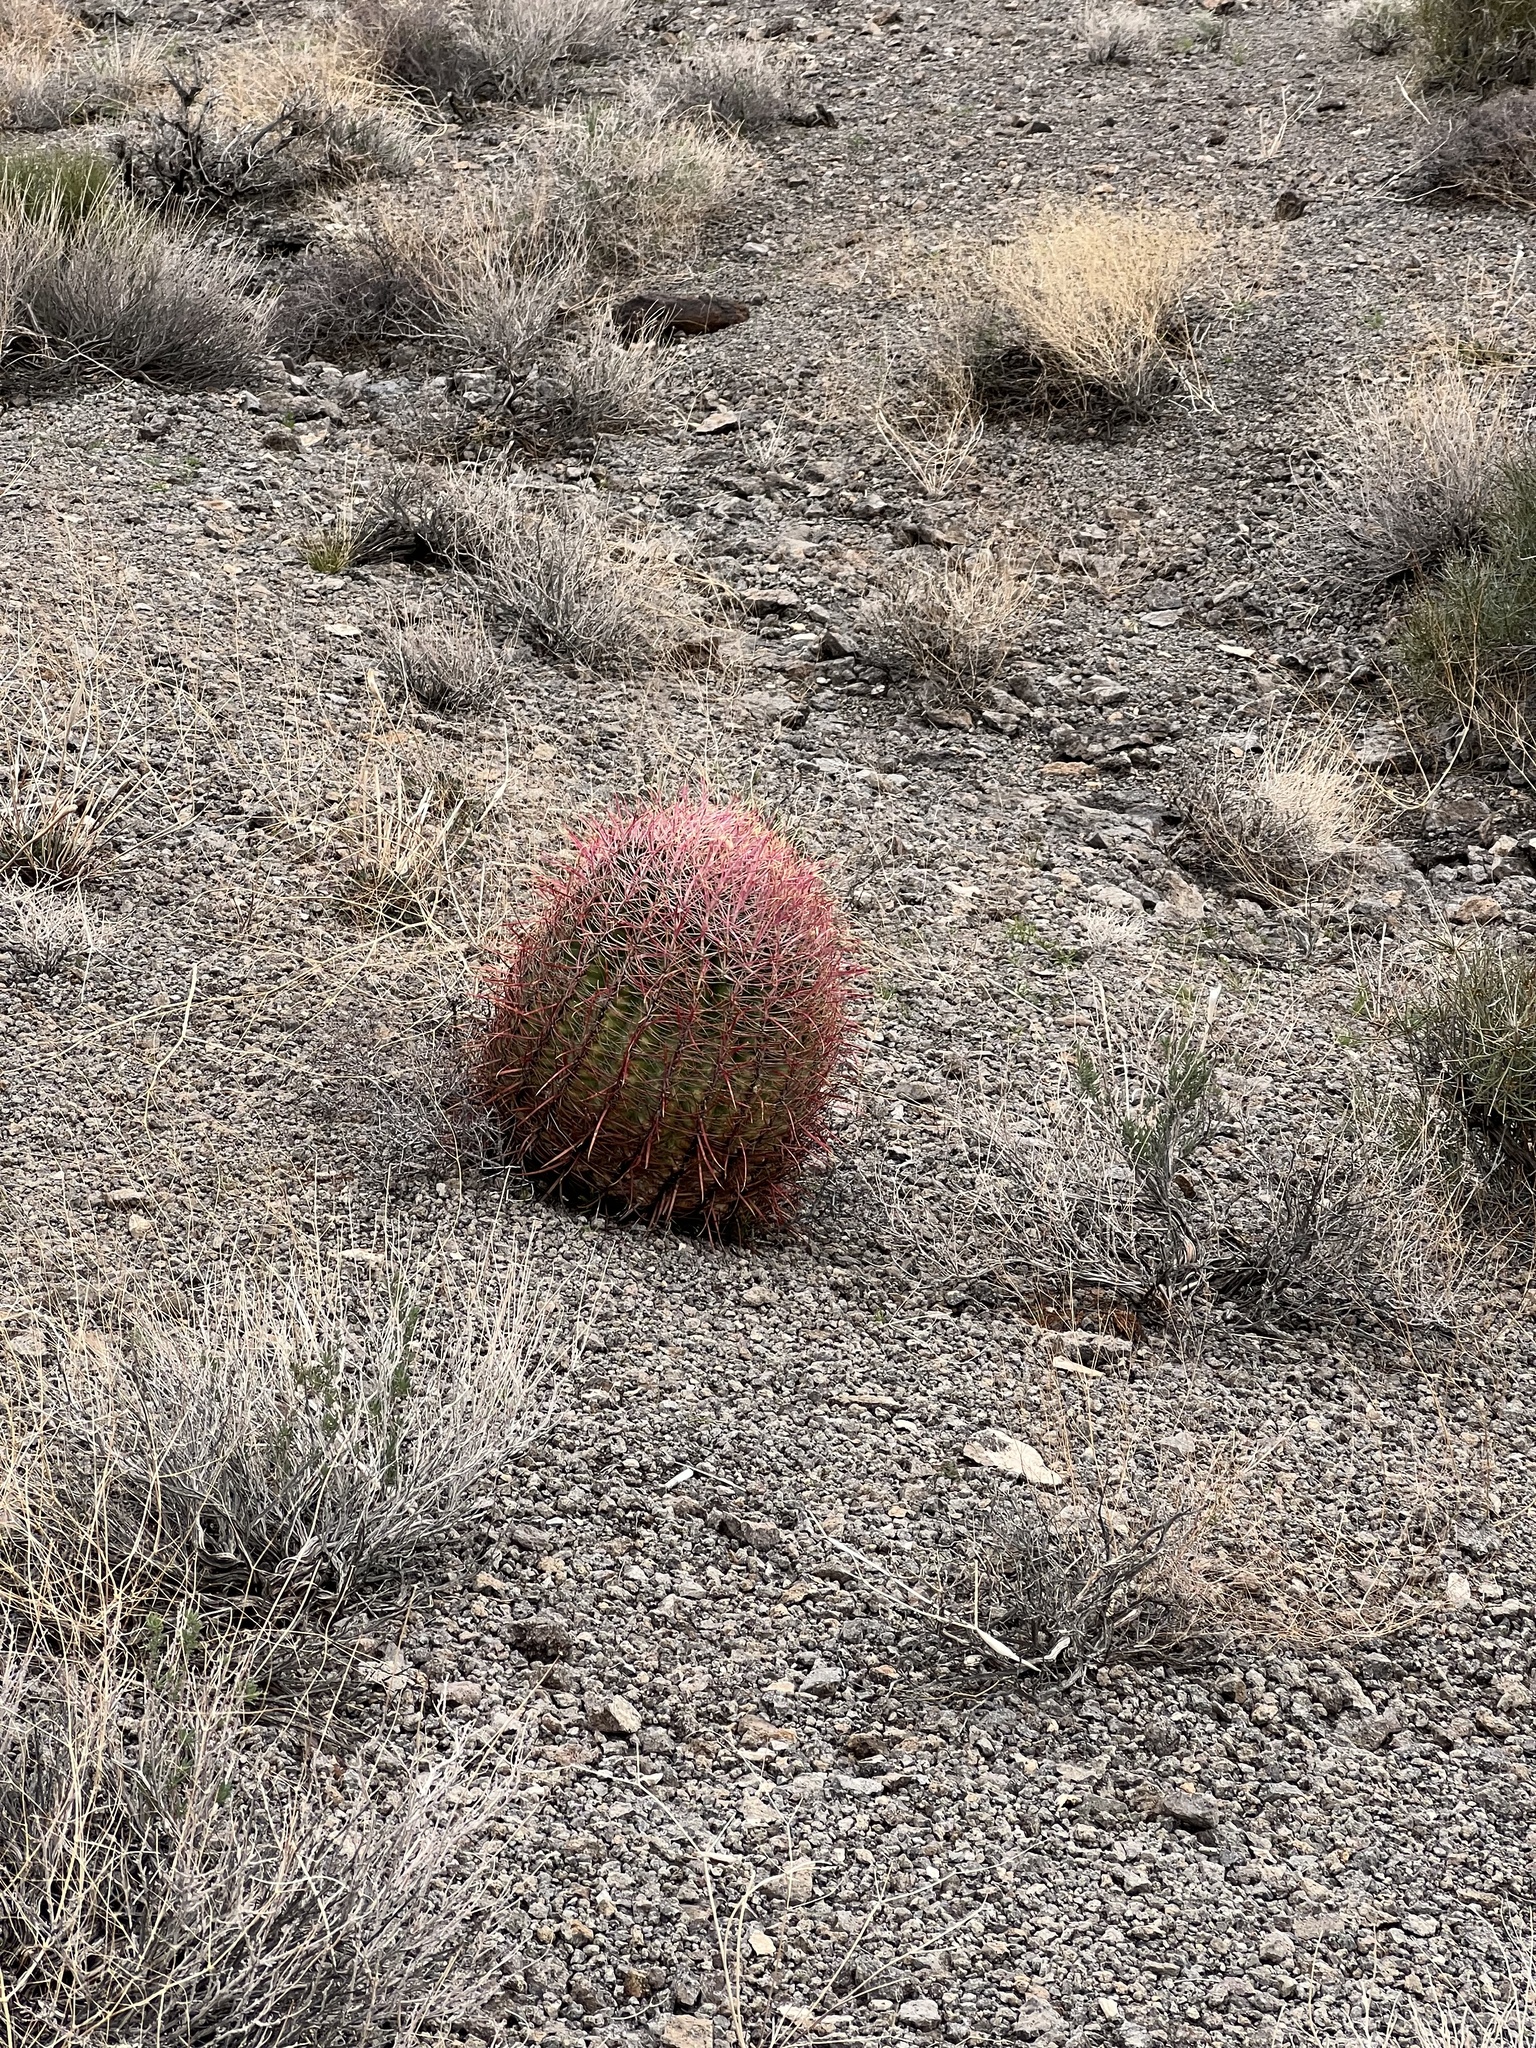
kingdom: Plantae
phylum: Tracheophyta
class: Magnoliopsida
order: Caryophyllales
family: Cactaceae
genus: Ferocactus
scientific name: Ferocactus cylindraceus
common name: California barrel cactus
